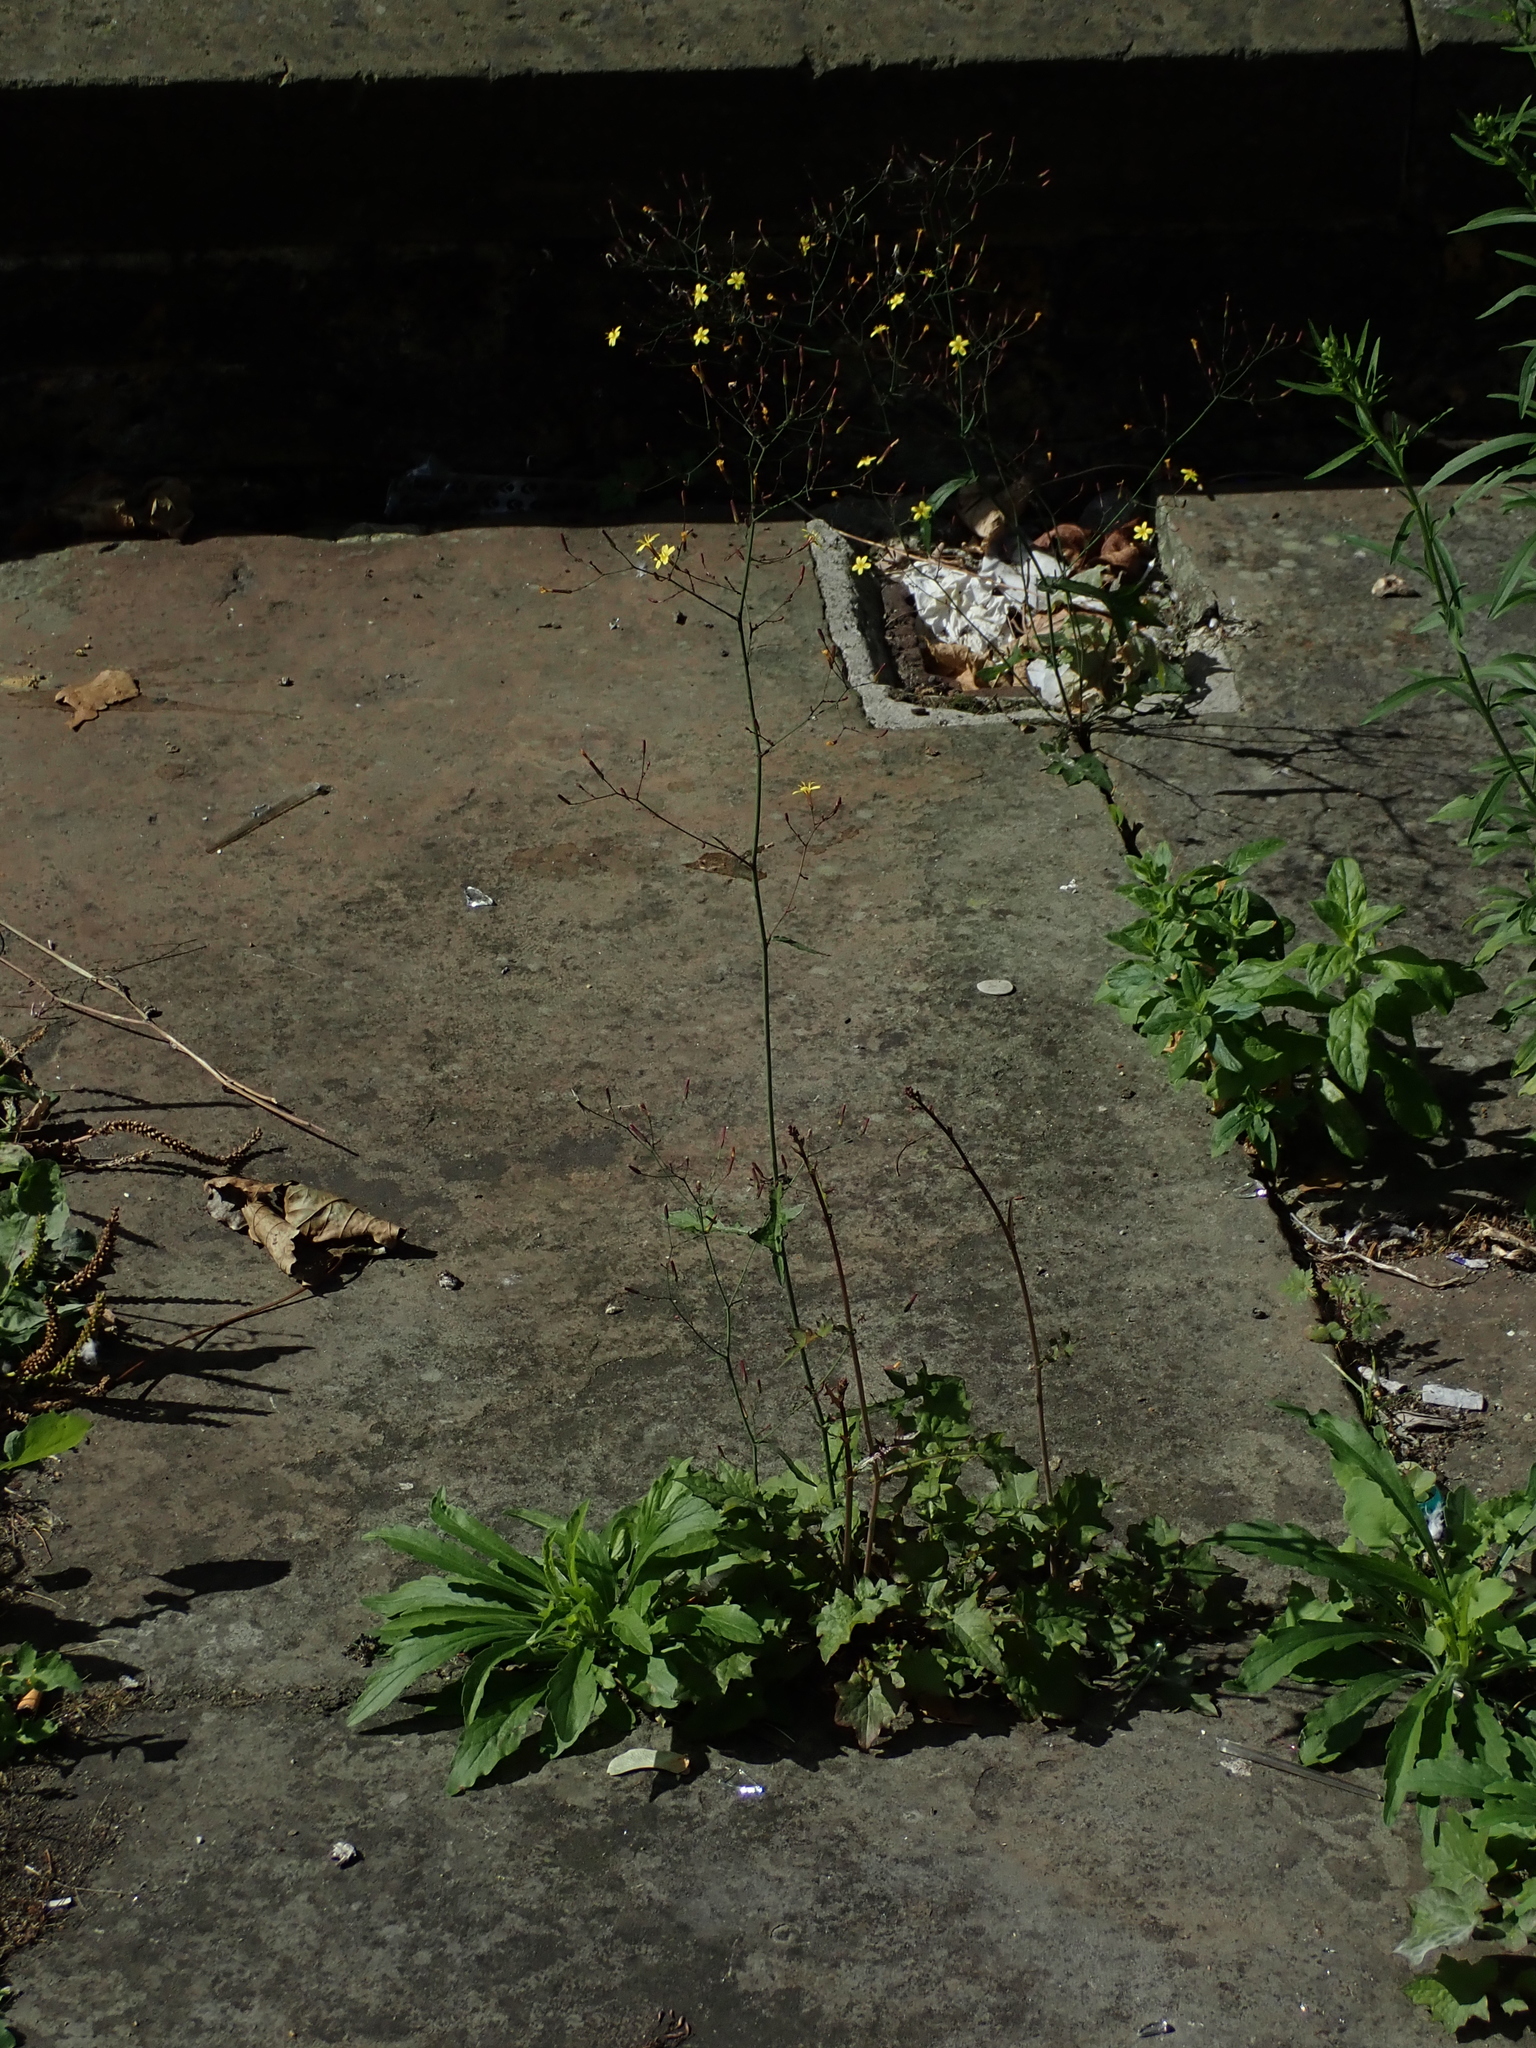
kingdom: Plantae
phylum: Tracheophyta
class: Magnoliopsida
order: Asterales
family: Asteraceae
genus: Mycelis
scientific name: Mycelis muralis
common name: Wall lettuce
